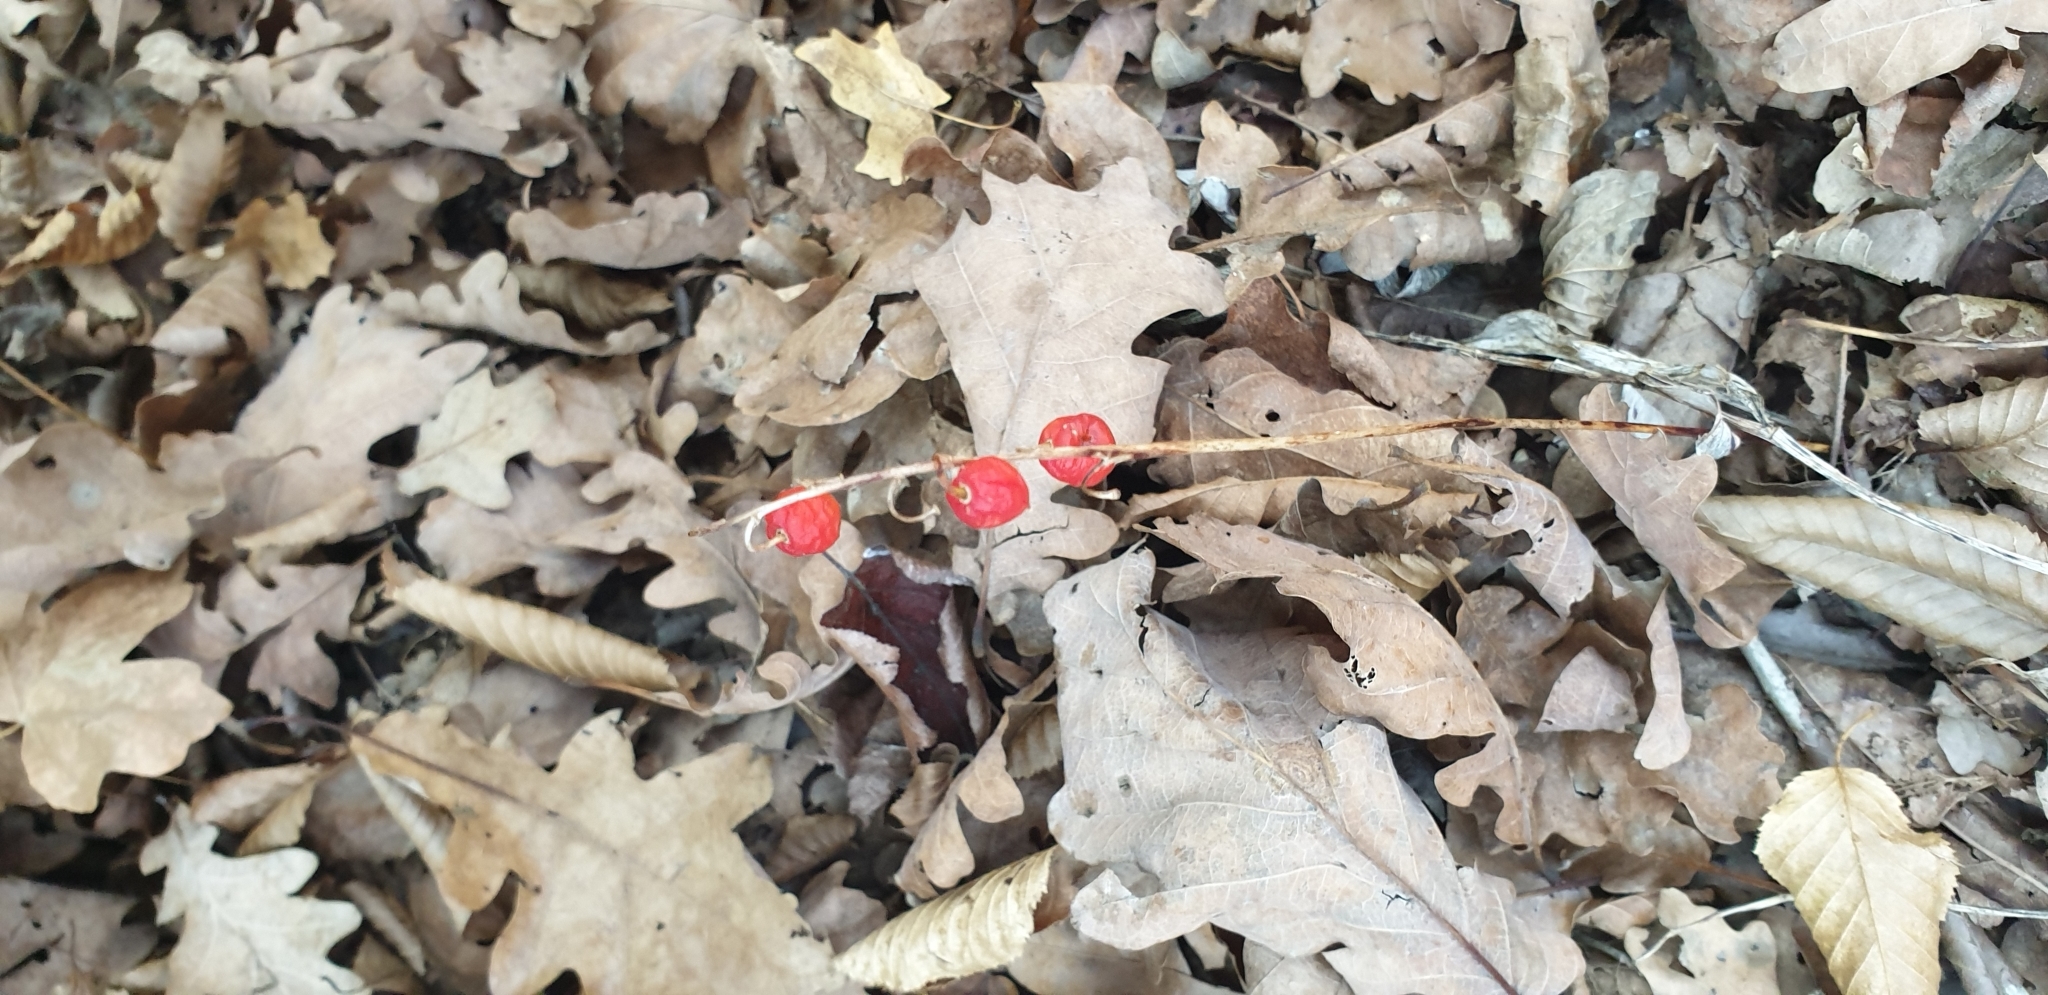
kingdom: Plantae
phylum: Tracheophyta
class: Liliopsida
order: Asparagales
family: Asparagaceae
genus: Convallaria
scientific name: Convallaria majalis
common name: Lily-of-the-valley
